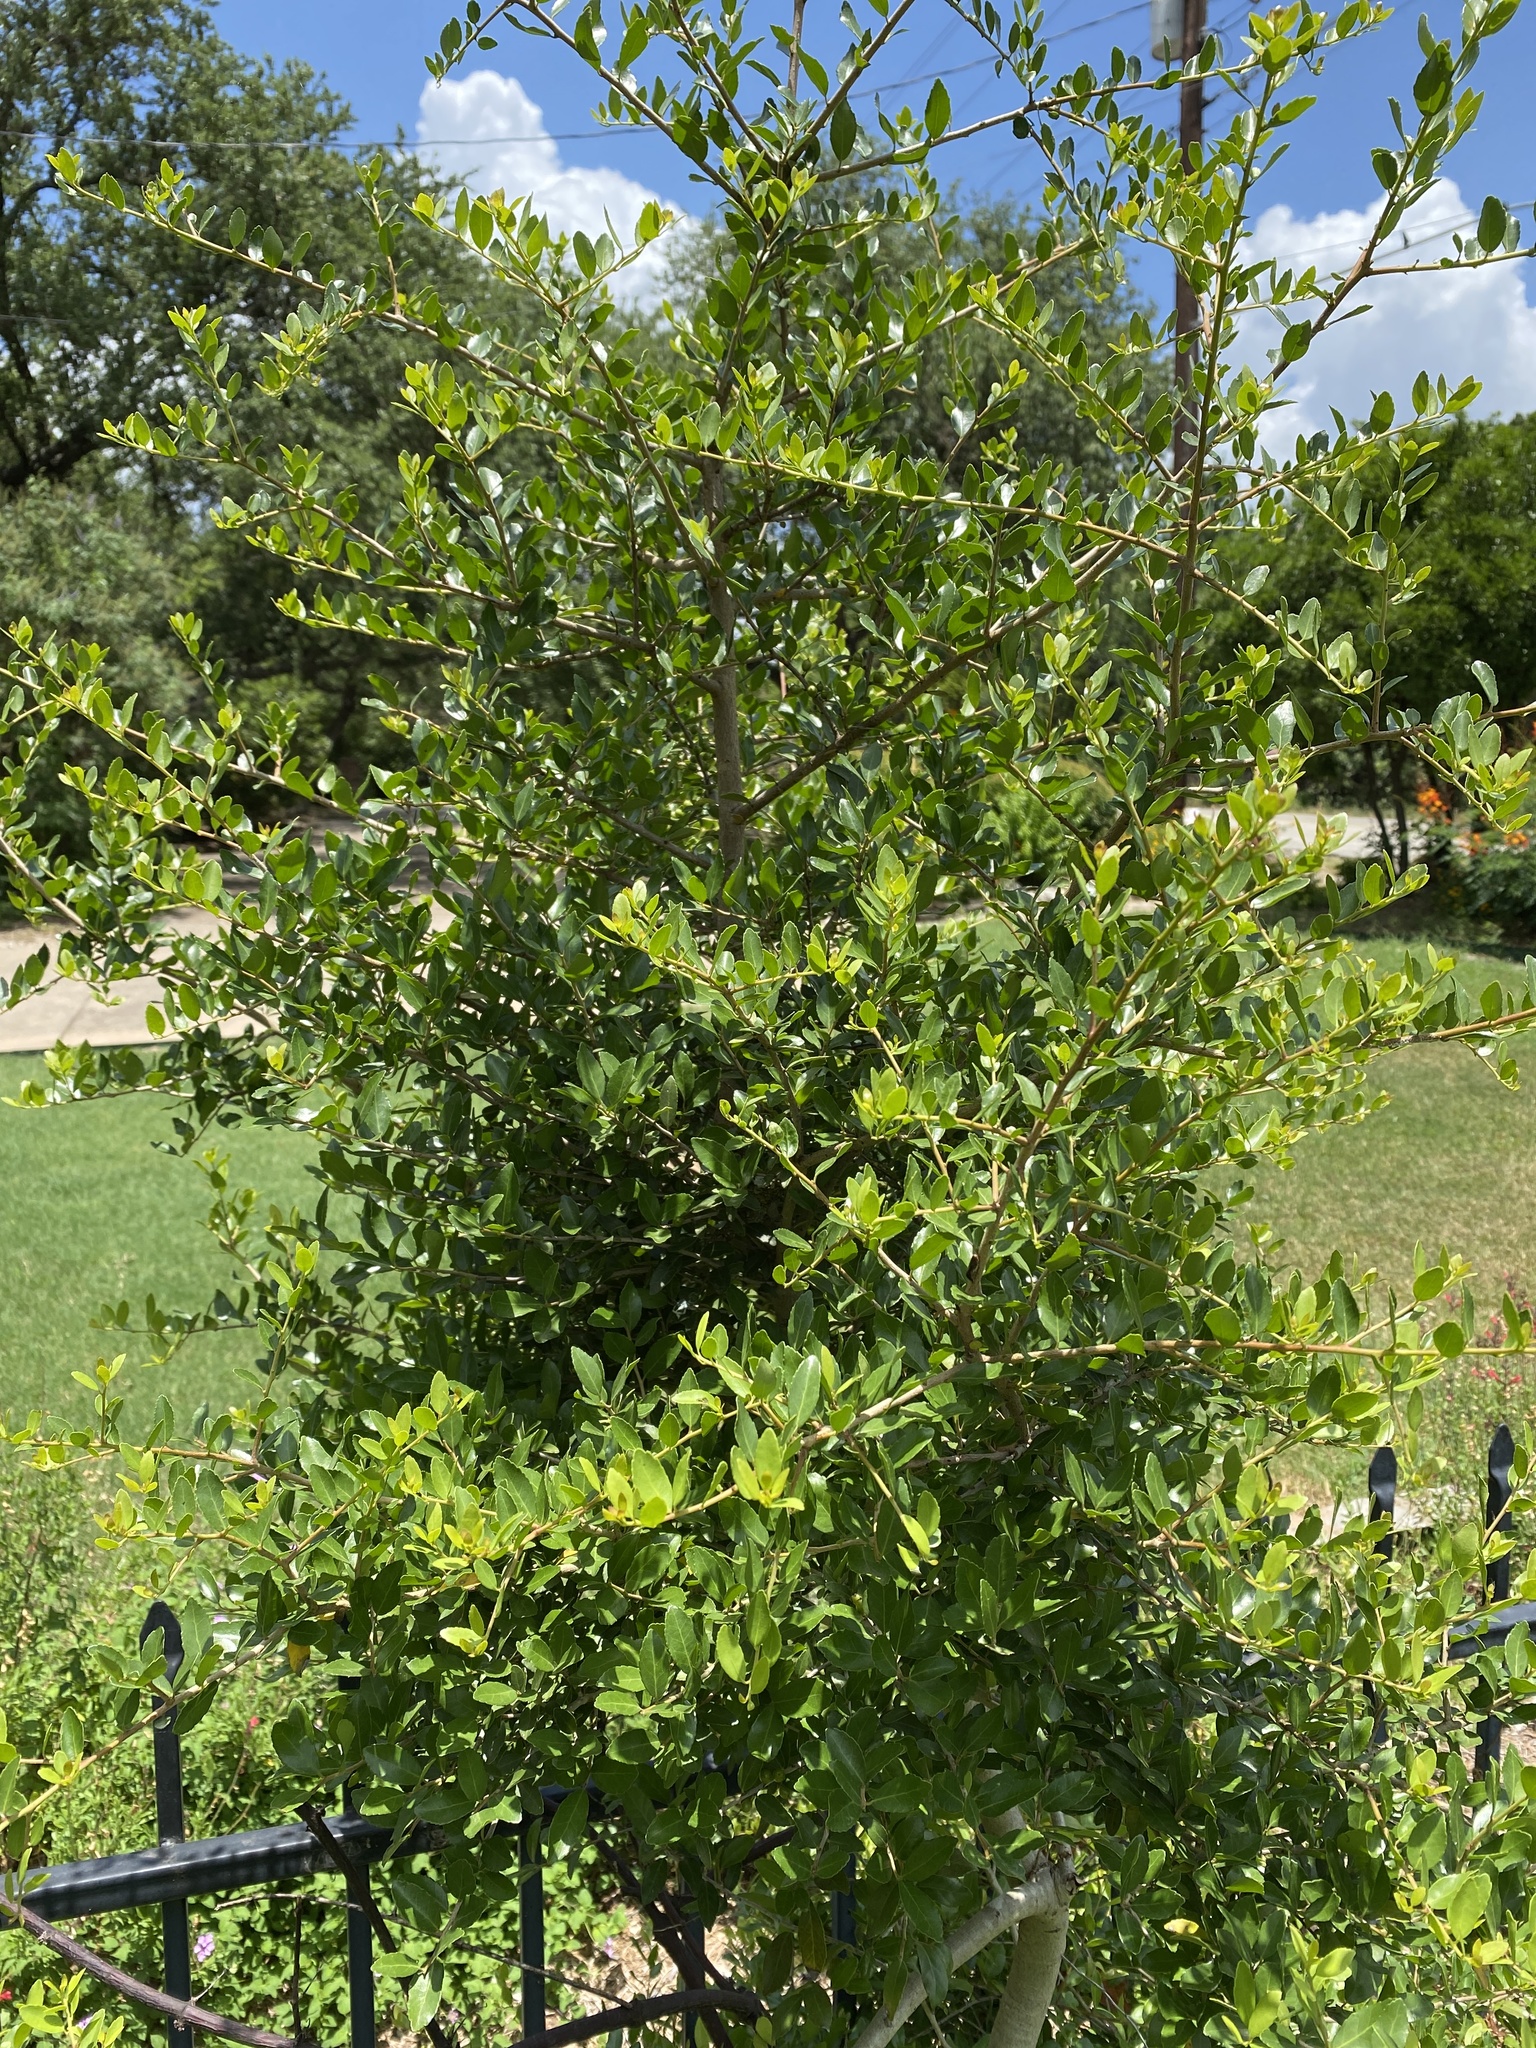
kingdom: Plantae
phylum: Tracheophyta
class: Magnoliopsida
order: Aquifoliales
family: Aquifoliaceae
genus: Ilex
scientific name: Ilex vomitoria
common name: Yaupon holly
